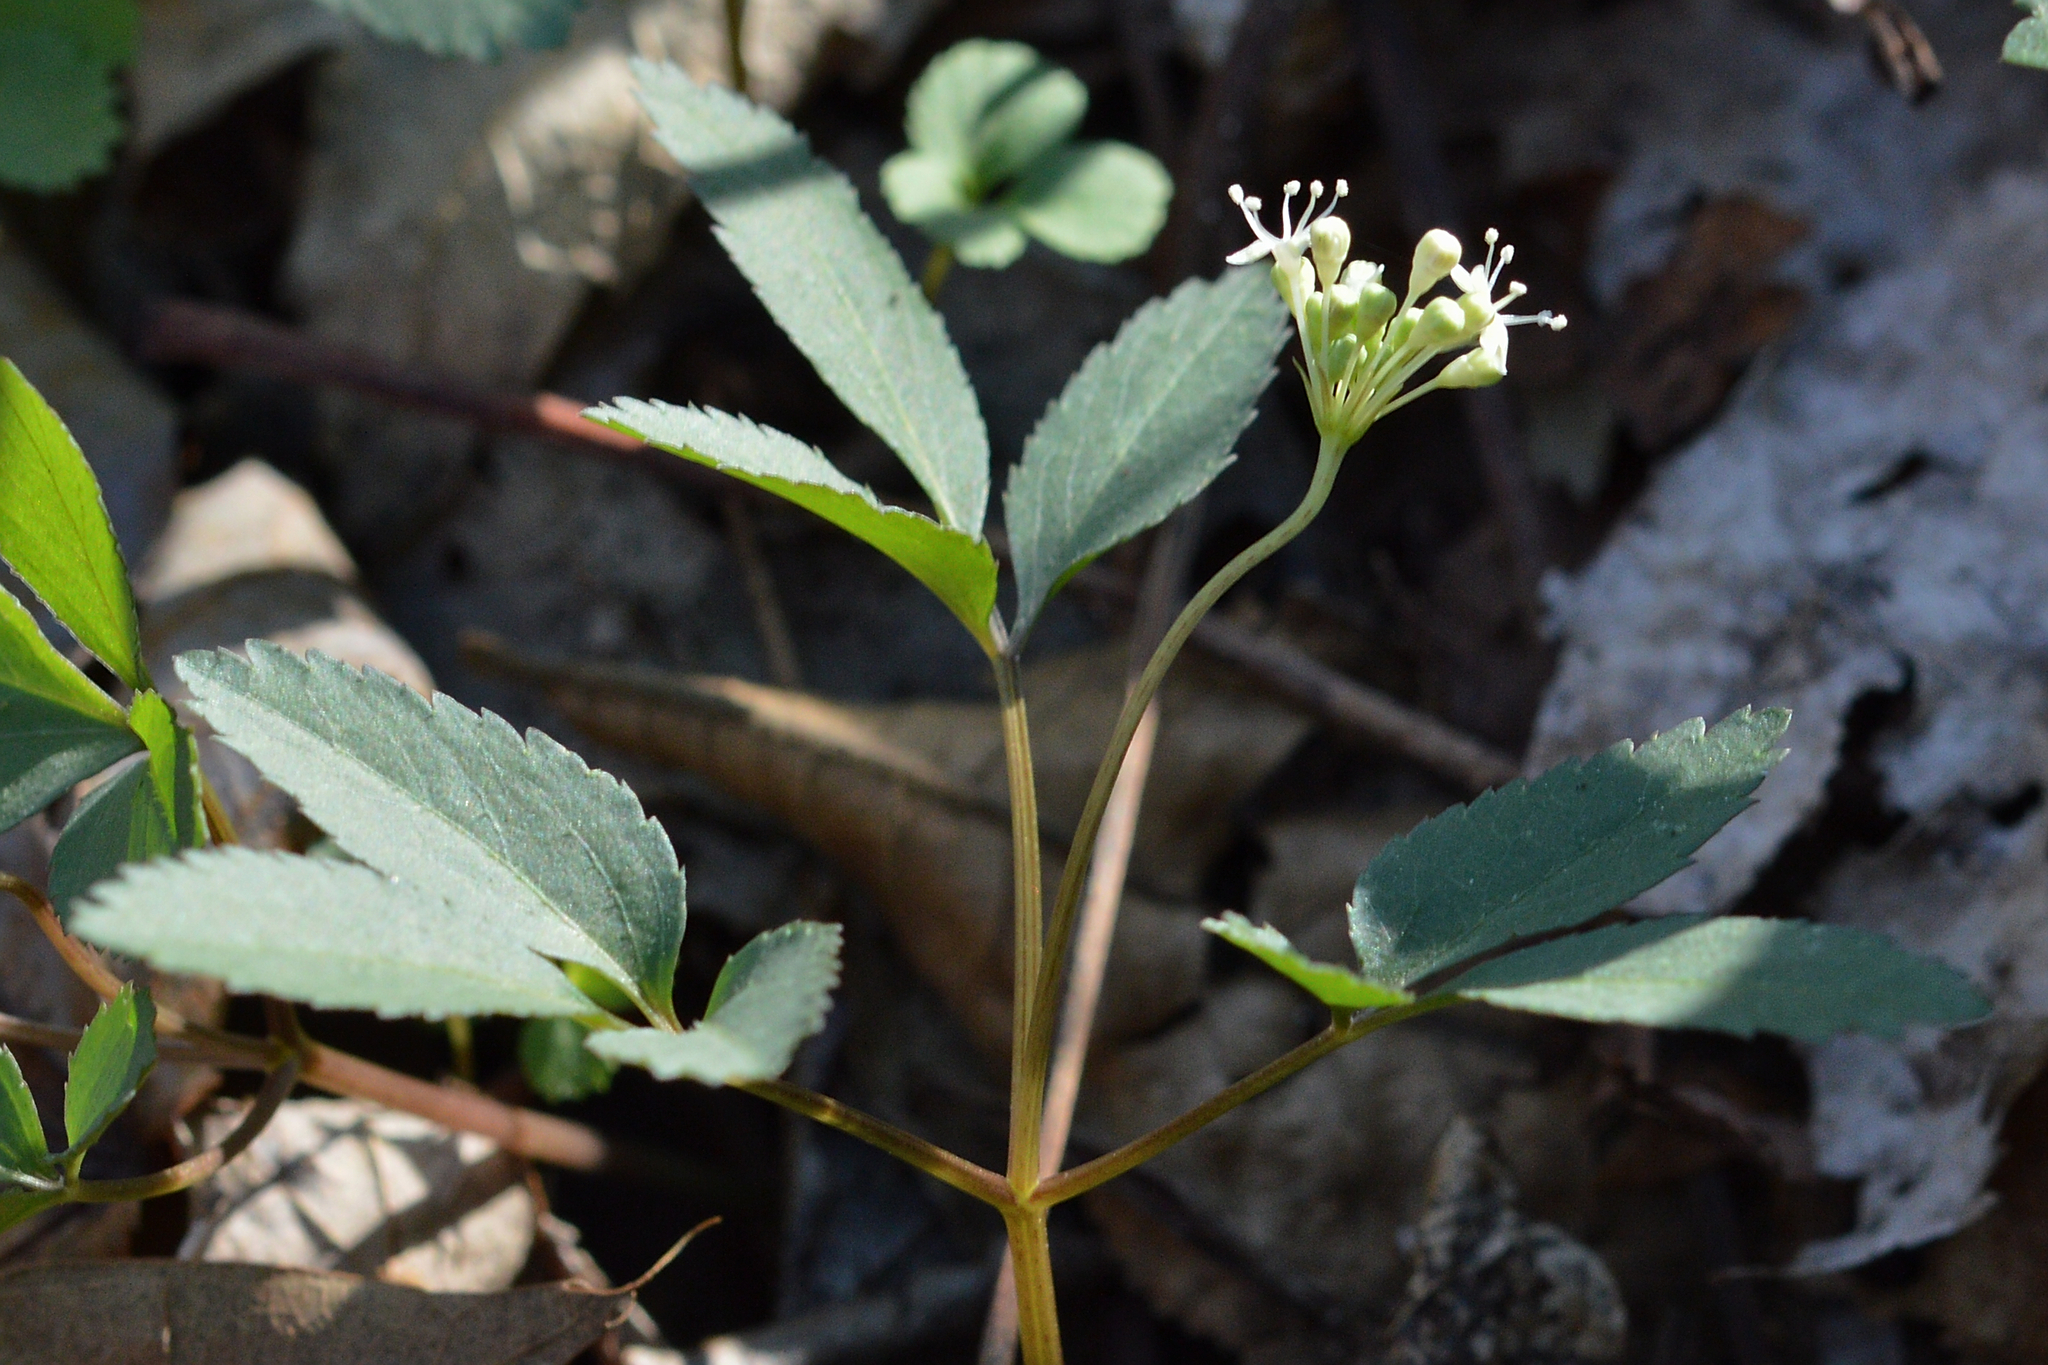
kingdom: Plantae
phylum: Tracheophyta
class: Magnoliopsida
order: Apiales
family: Araliaceae
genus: Panax
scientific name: Panax trifolius
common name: Dwarf ginseng
